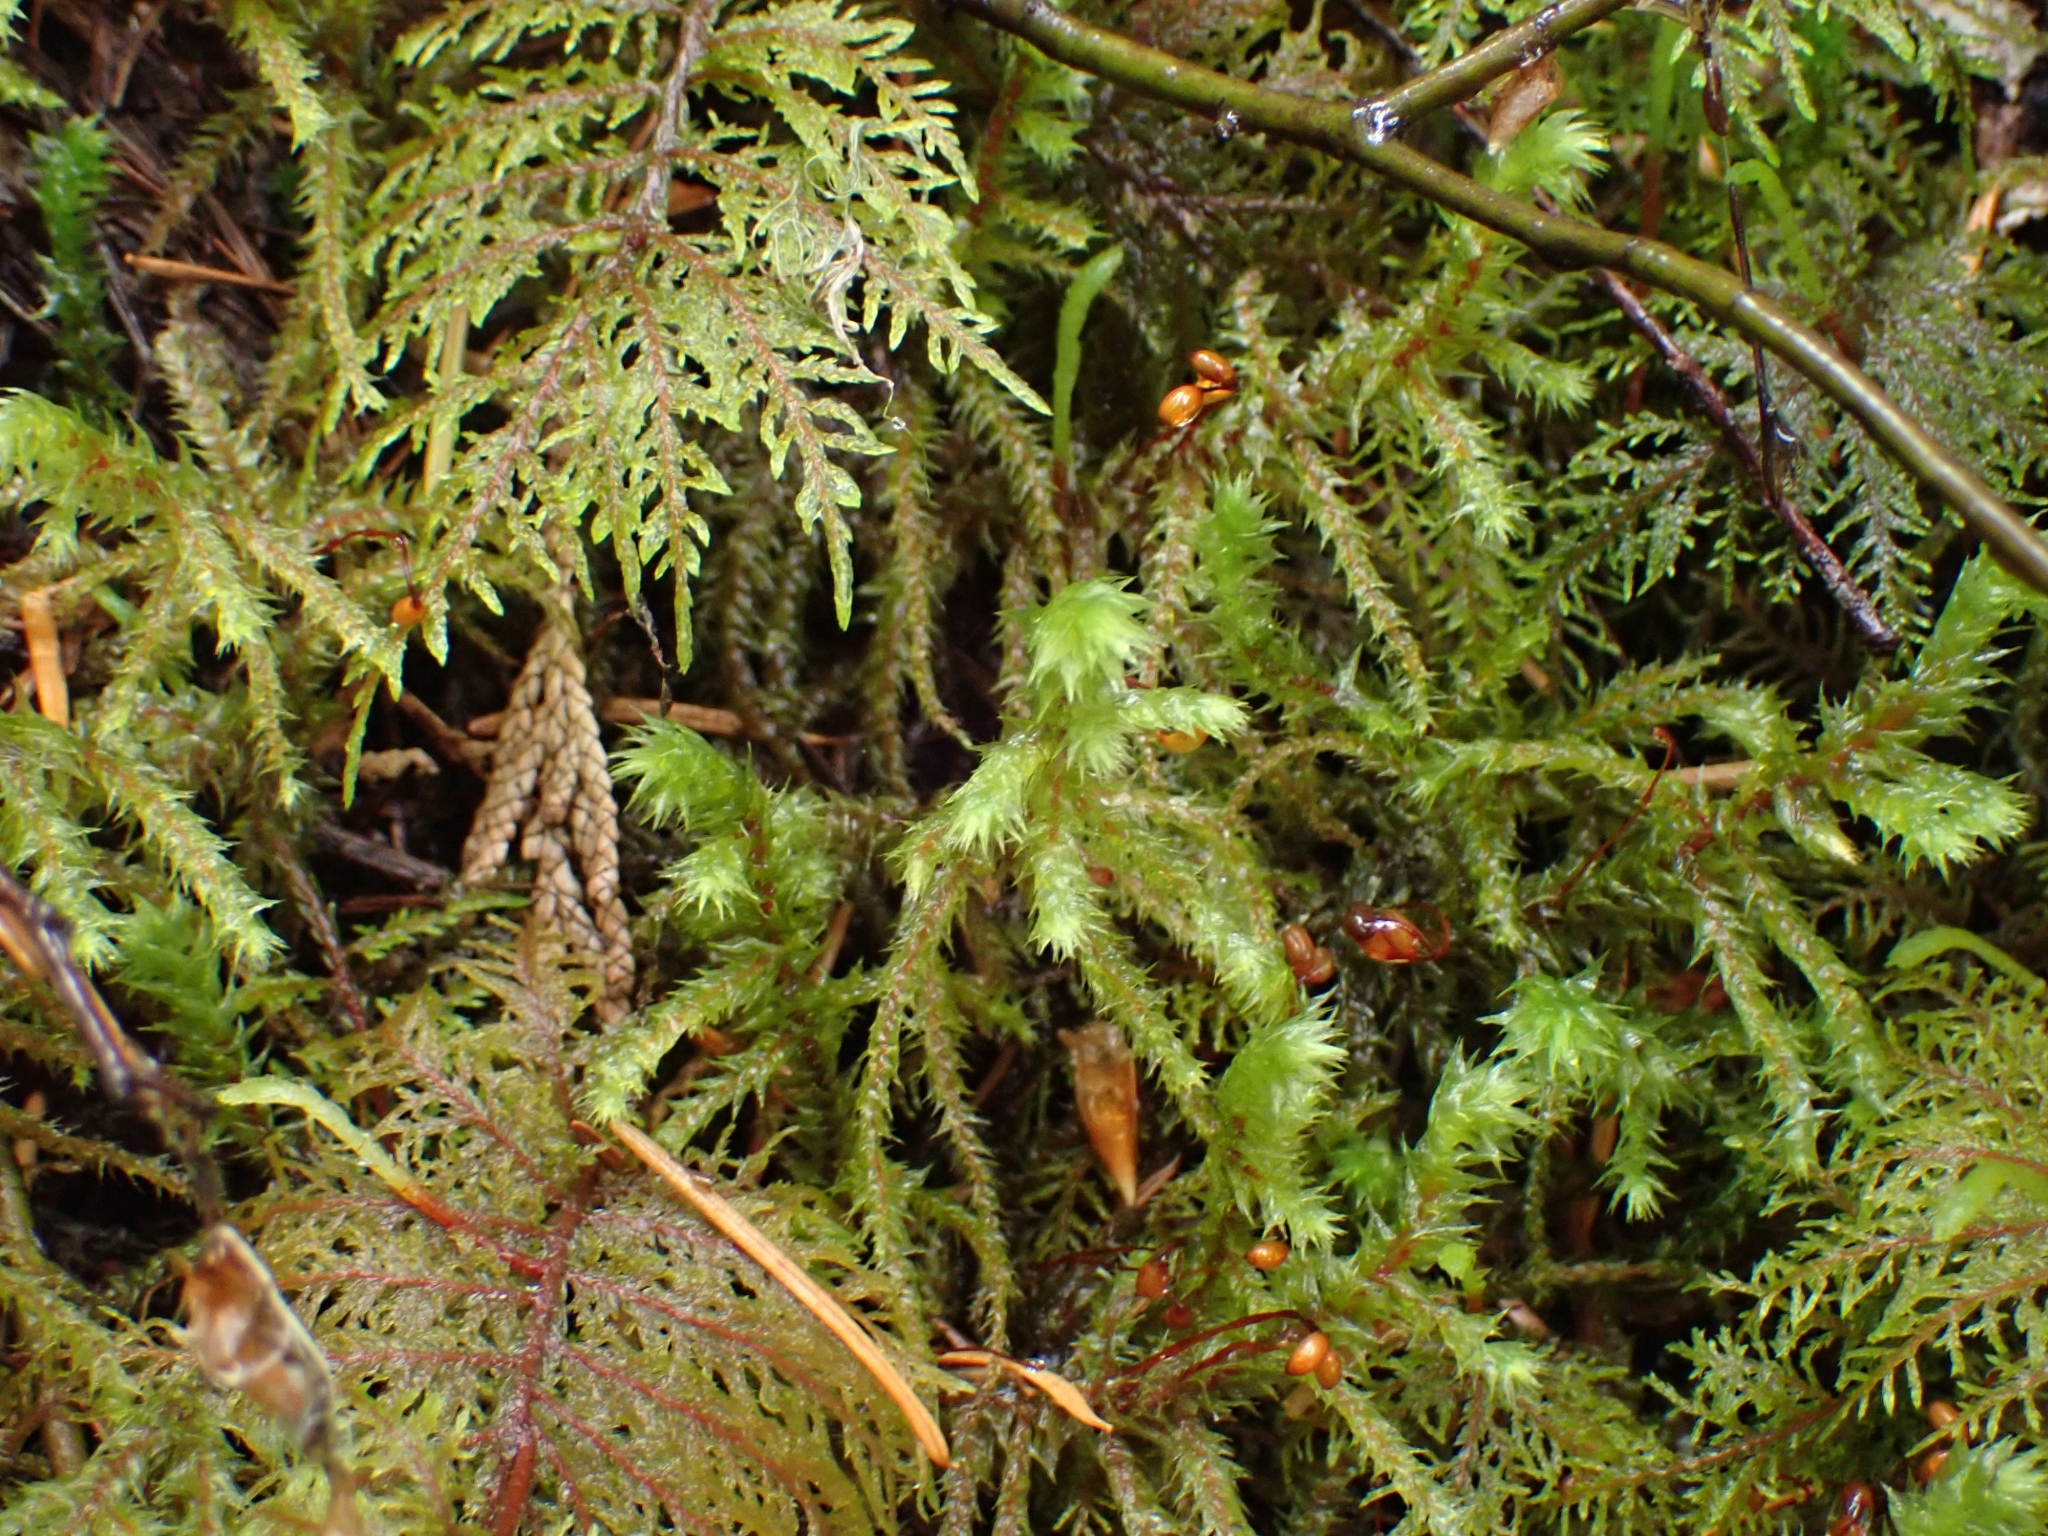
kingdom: Plantae
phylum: Bryophyta
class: Bryopsida
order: Hypnales
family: Hylocomiaceae
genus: Hylocomiadelphus
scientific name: Hylocomiadelphus triquetrus
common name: Rough goose neck moss
